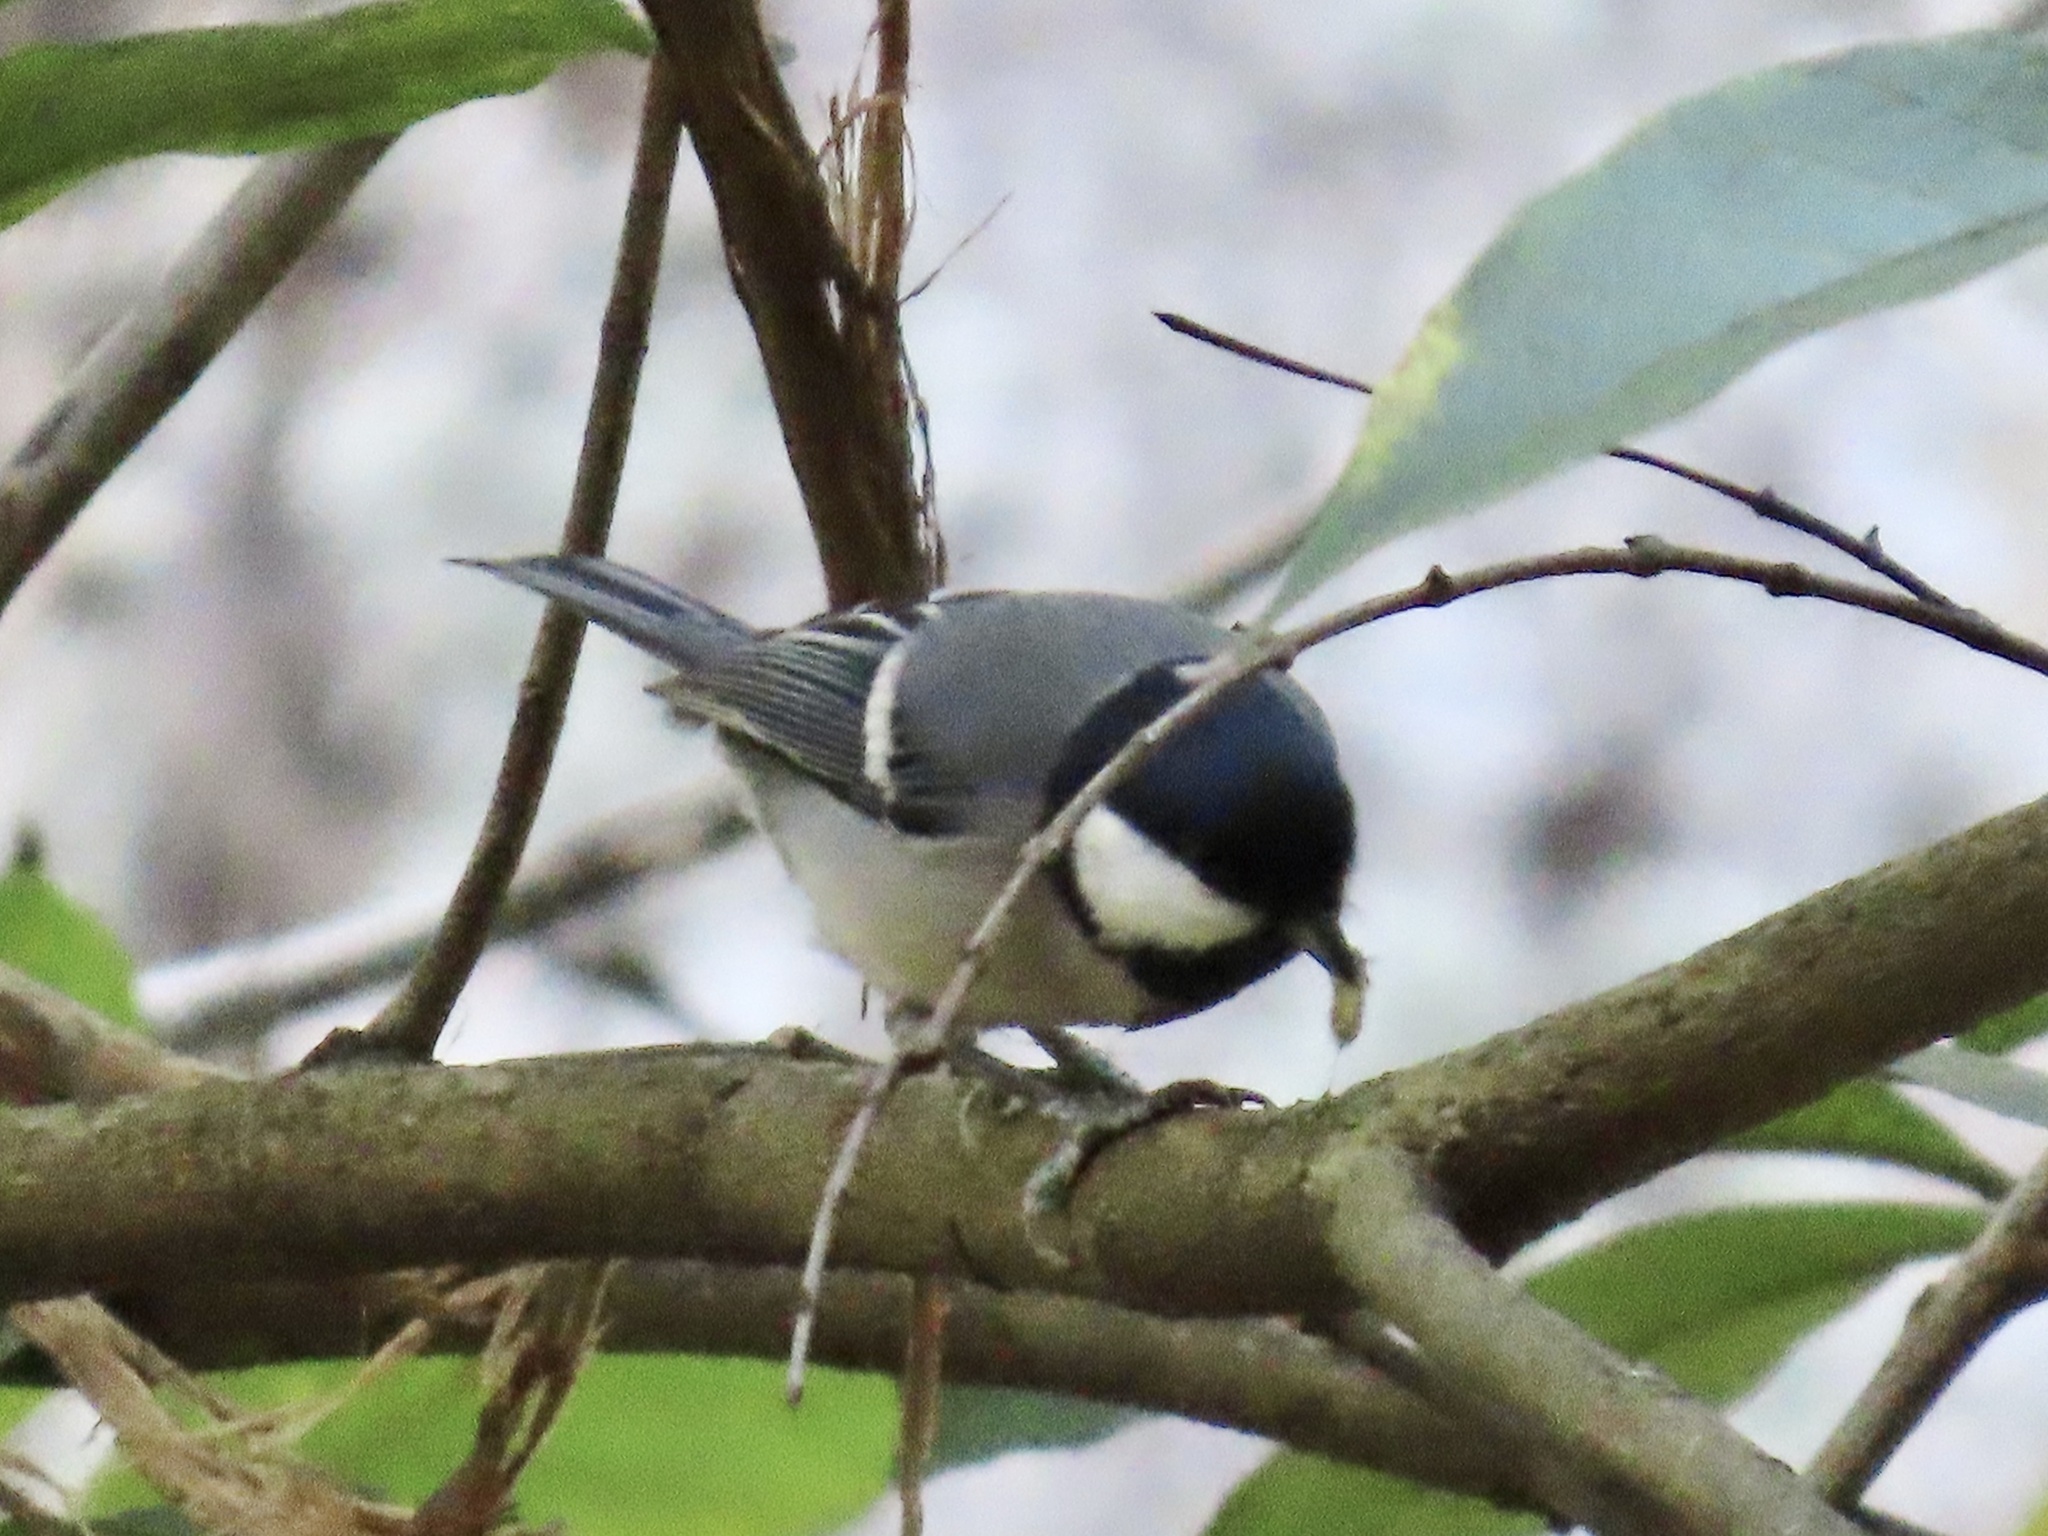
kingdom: Animalia
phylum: Chordata
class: Aves
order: Passeriformes
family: Paridae
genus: Parus
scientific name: Parus minor
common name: Japanese tit
